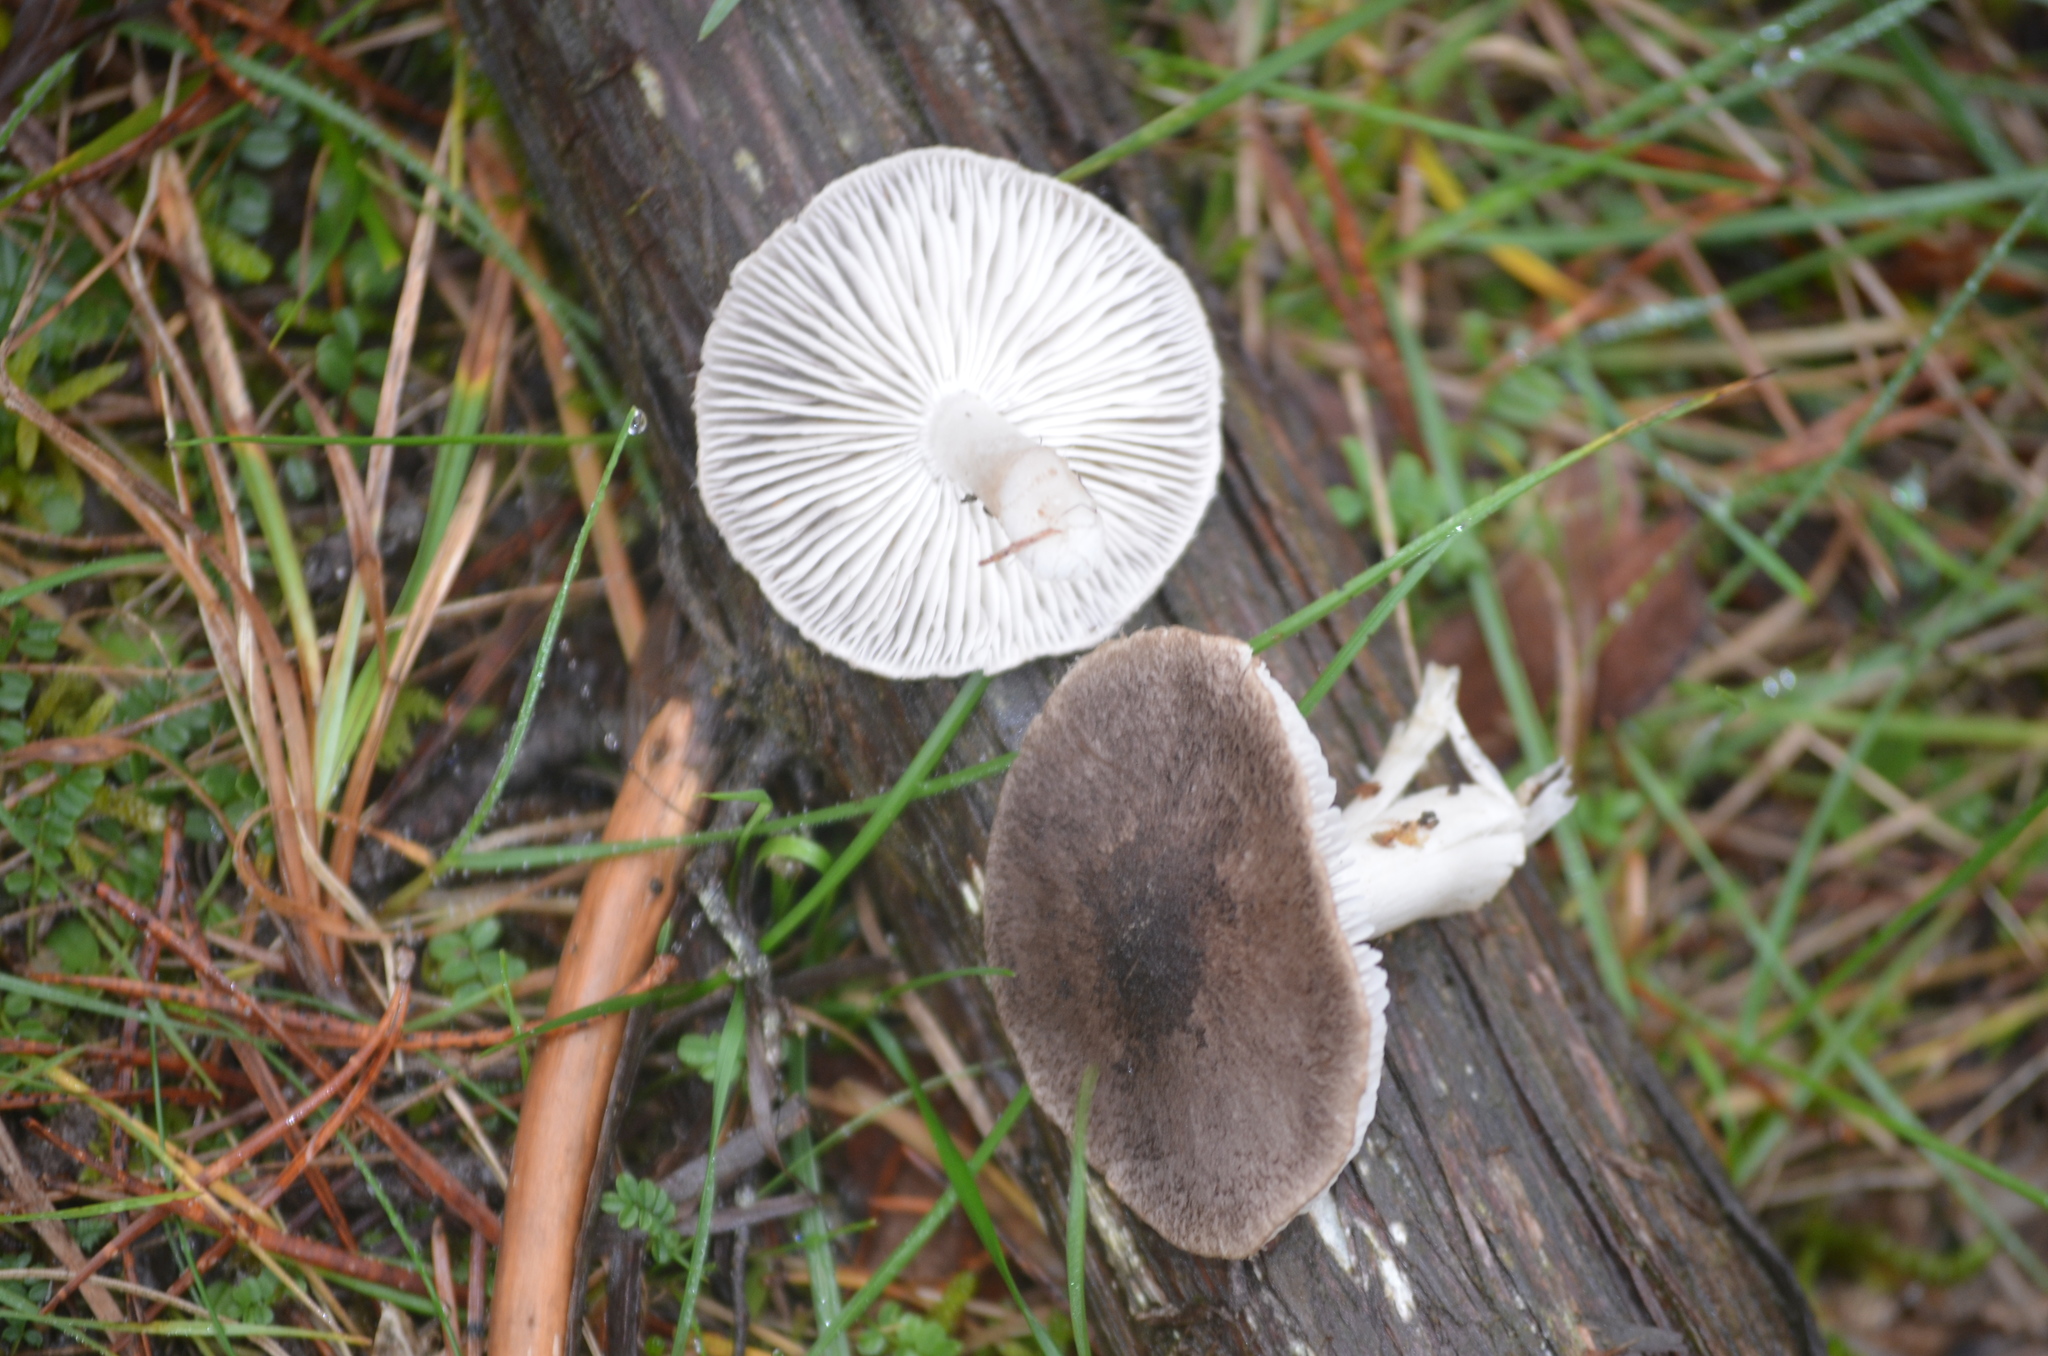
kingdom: Fungi
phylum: Basidiomycota
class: Agaricomycetes
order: Agaricales
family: Tricholomataceae
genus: Tricholoma
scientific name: Tricholoma terreum
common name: Grey knight
